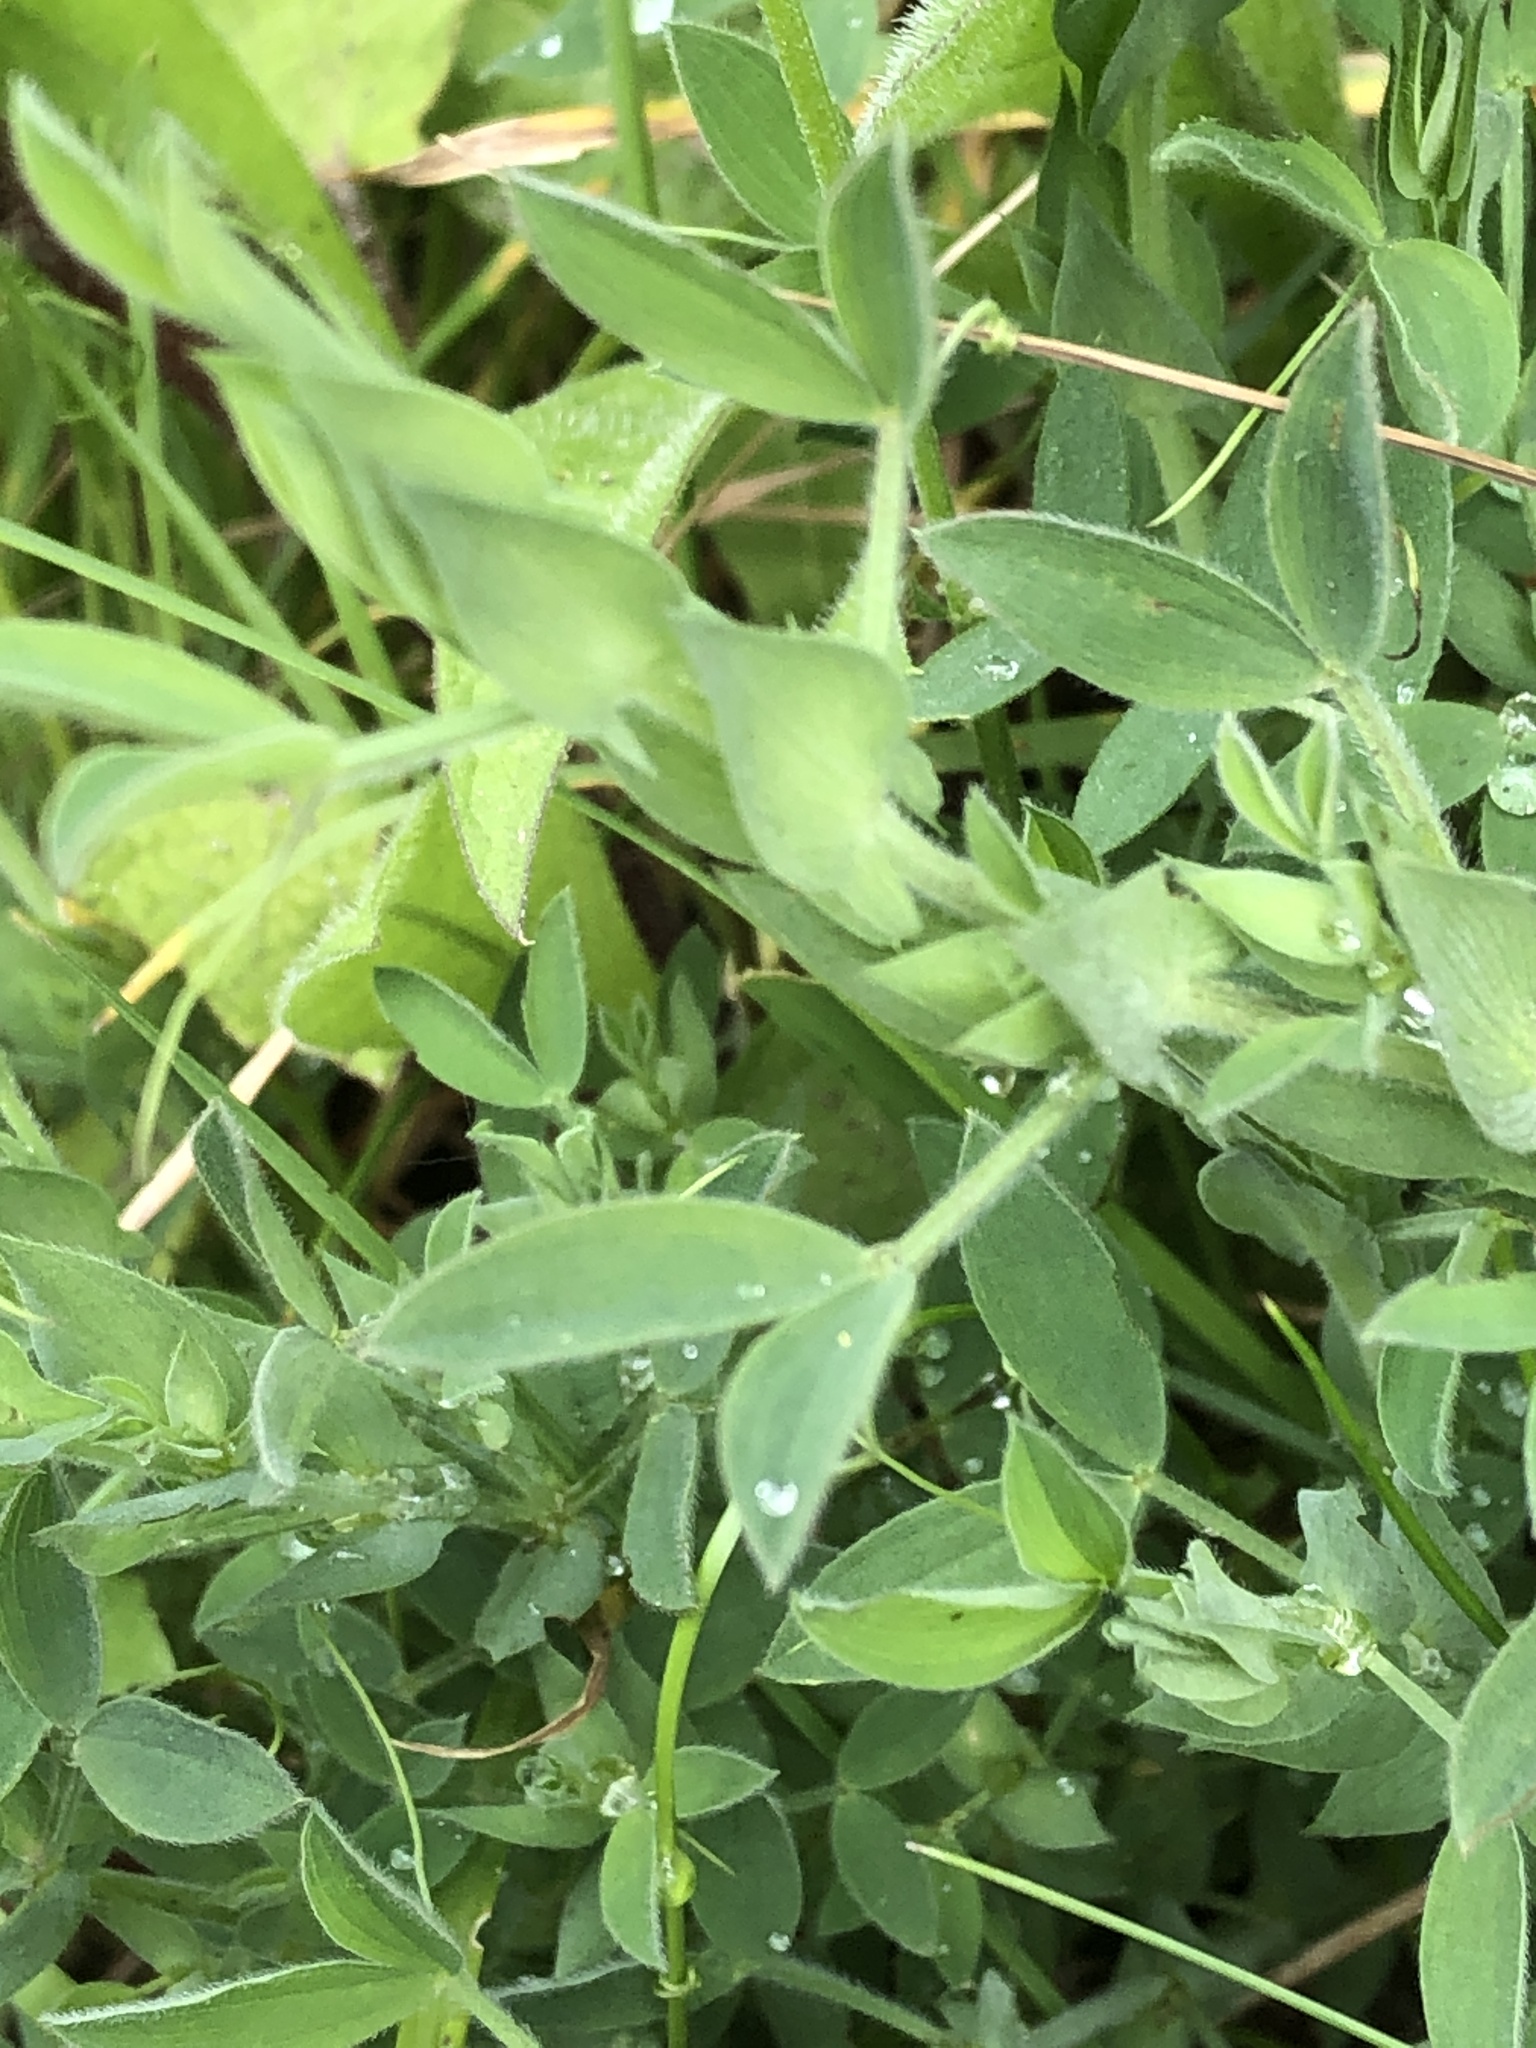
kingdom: Plantae
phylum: Tracheophyta
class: Magnoliopsida
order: Fabales
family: Fabaceae
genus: Lathyrus
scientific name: Lathyrus pratensis
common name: Meadow vetchling
